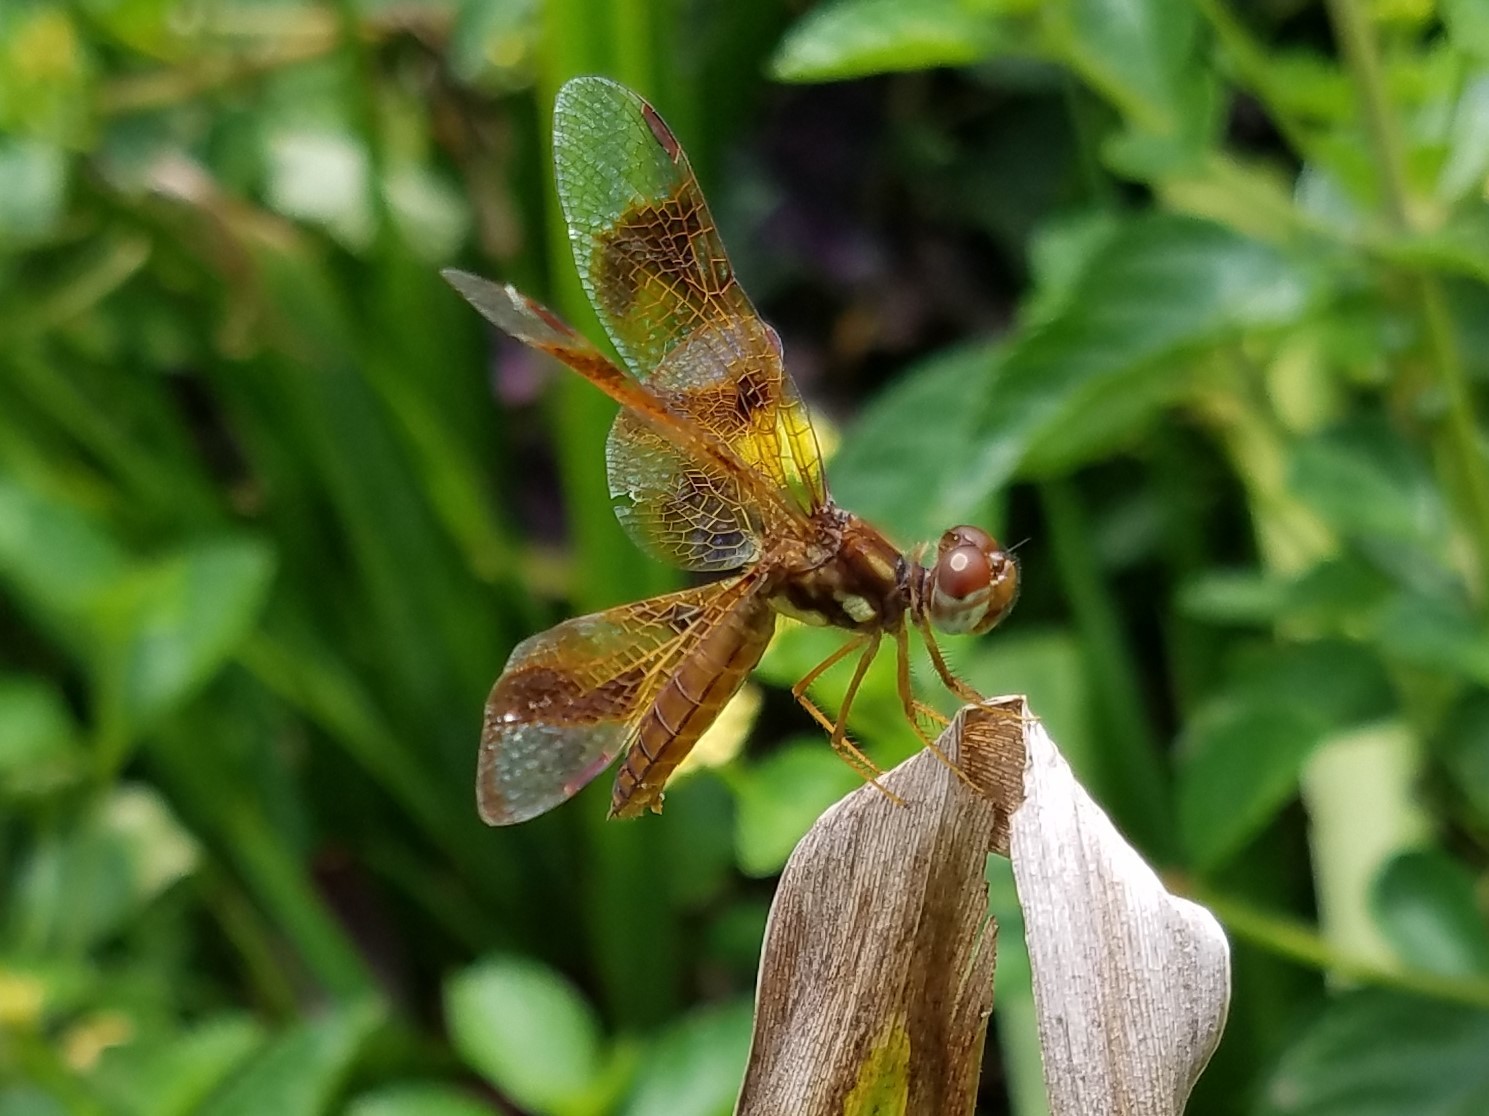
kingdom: Animalia
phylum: Arthropoda
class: Insecta
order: Odonata
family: Libellulidae
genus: Perithemis
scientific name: Perithemis tenera
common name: Eastern amberwing
